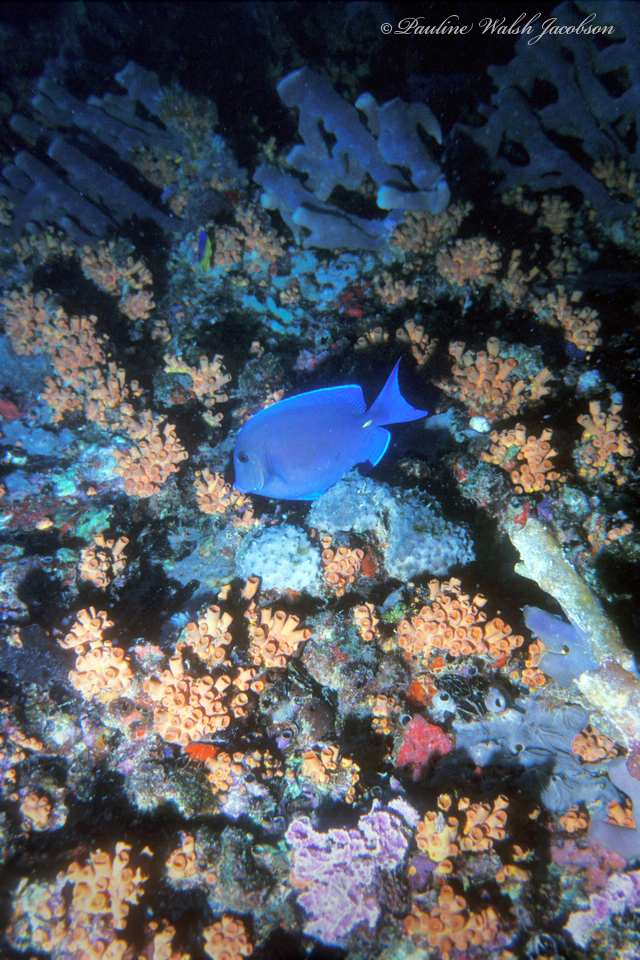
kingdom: Animalia
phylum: Chordata
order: Perciformes
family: Acanthuridae
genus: Acanthurus
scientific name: Acanthurus coeruleus
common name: Blue tang
